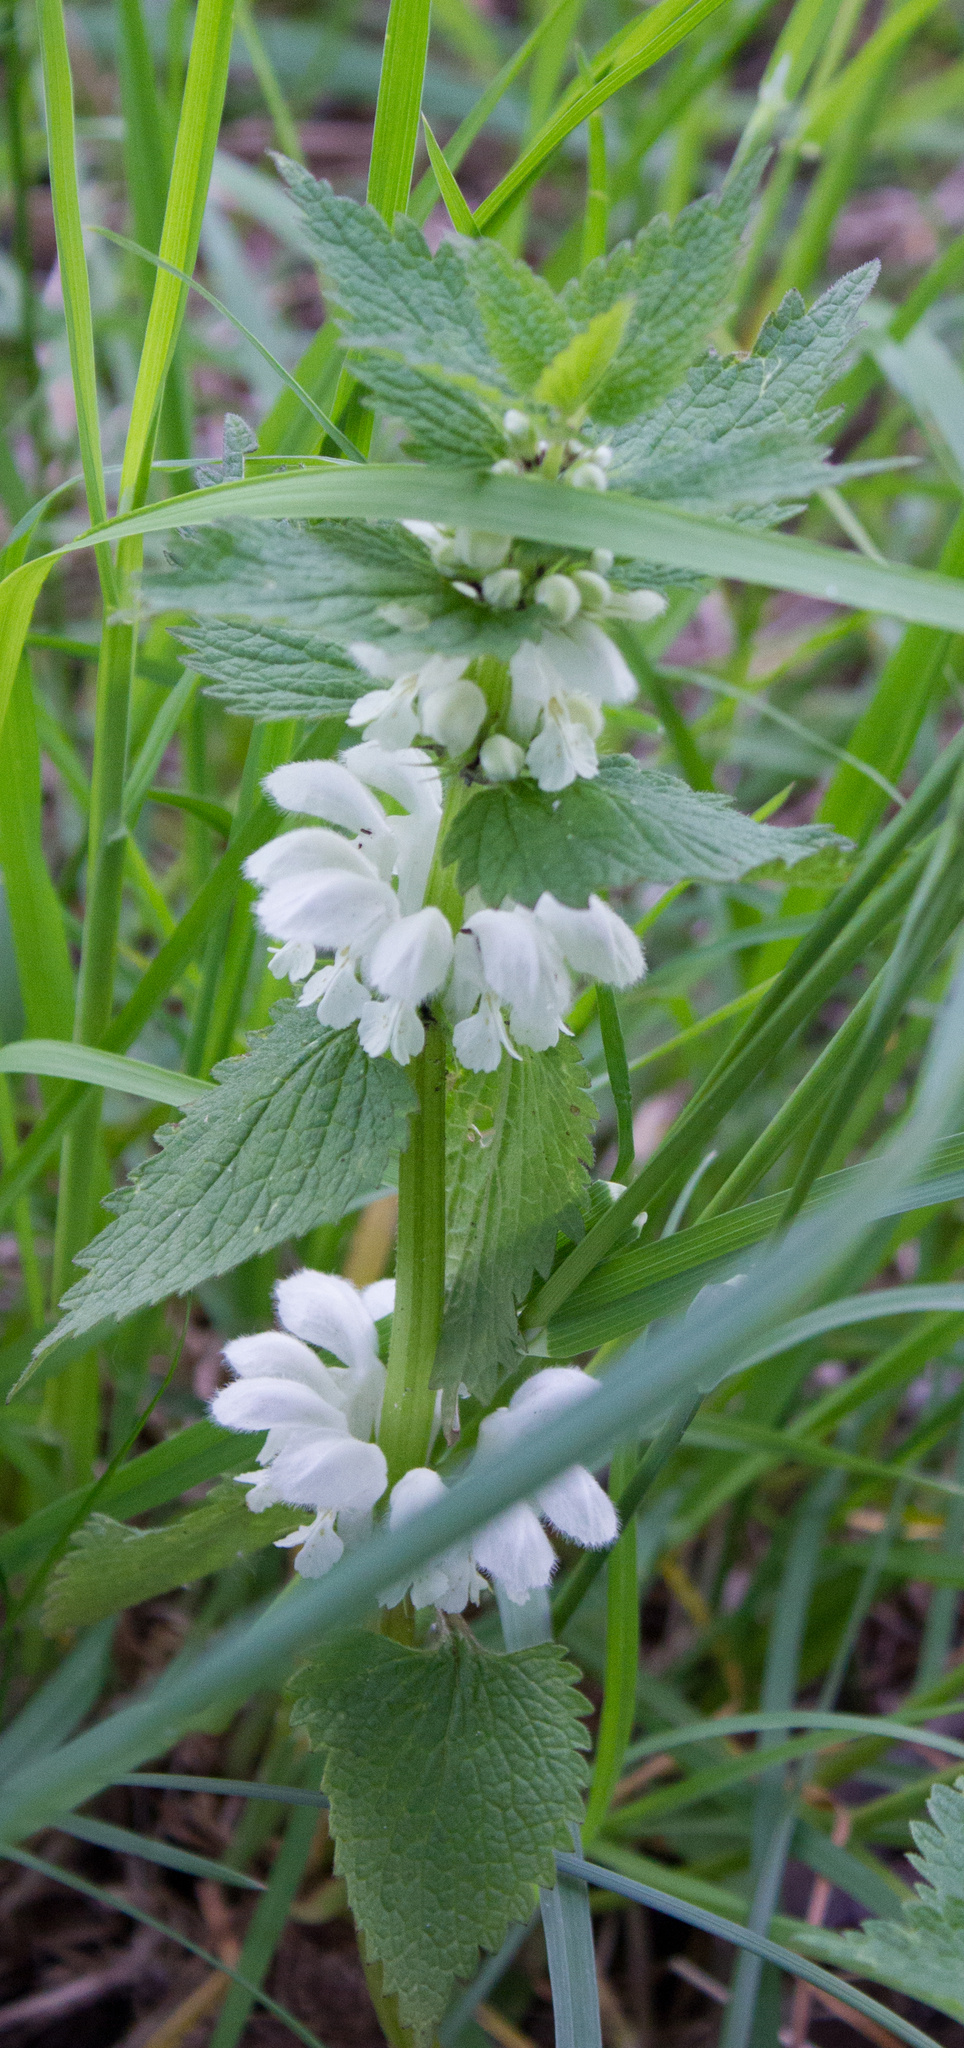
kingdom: Plantae
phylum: Tracheophyta
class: Magnoliopsida
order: Lamiales
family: Lamiaceae
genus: Lamium
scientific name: Lamium album
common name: White dead-nettle
